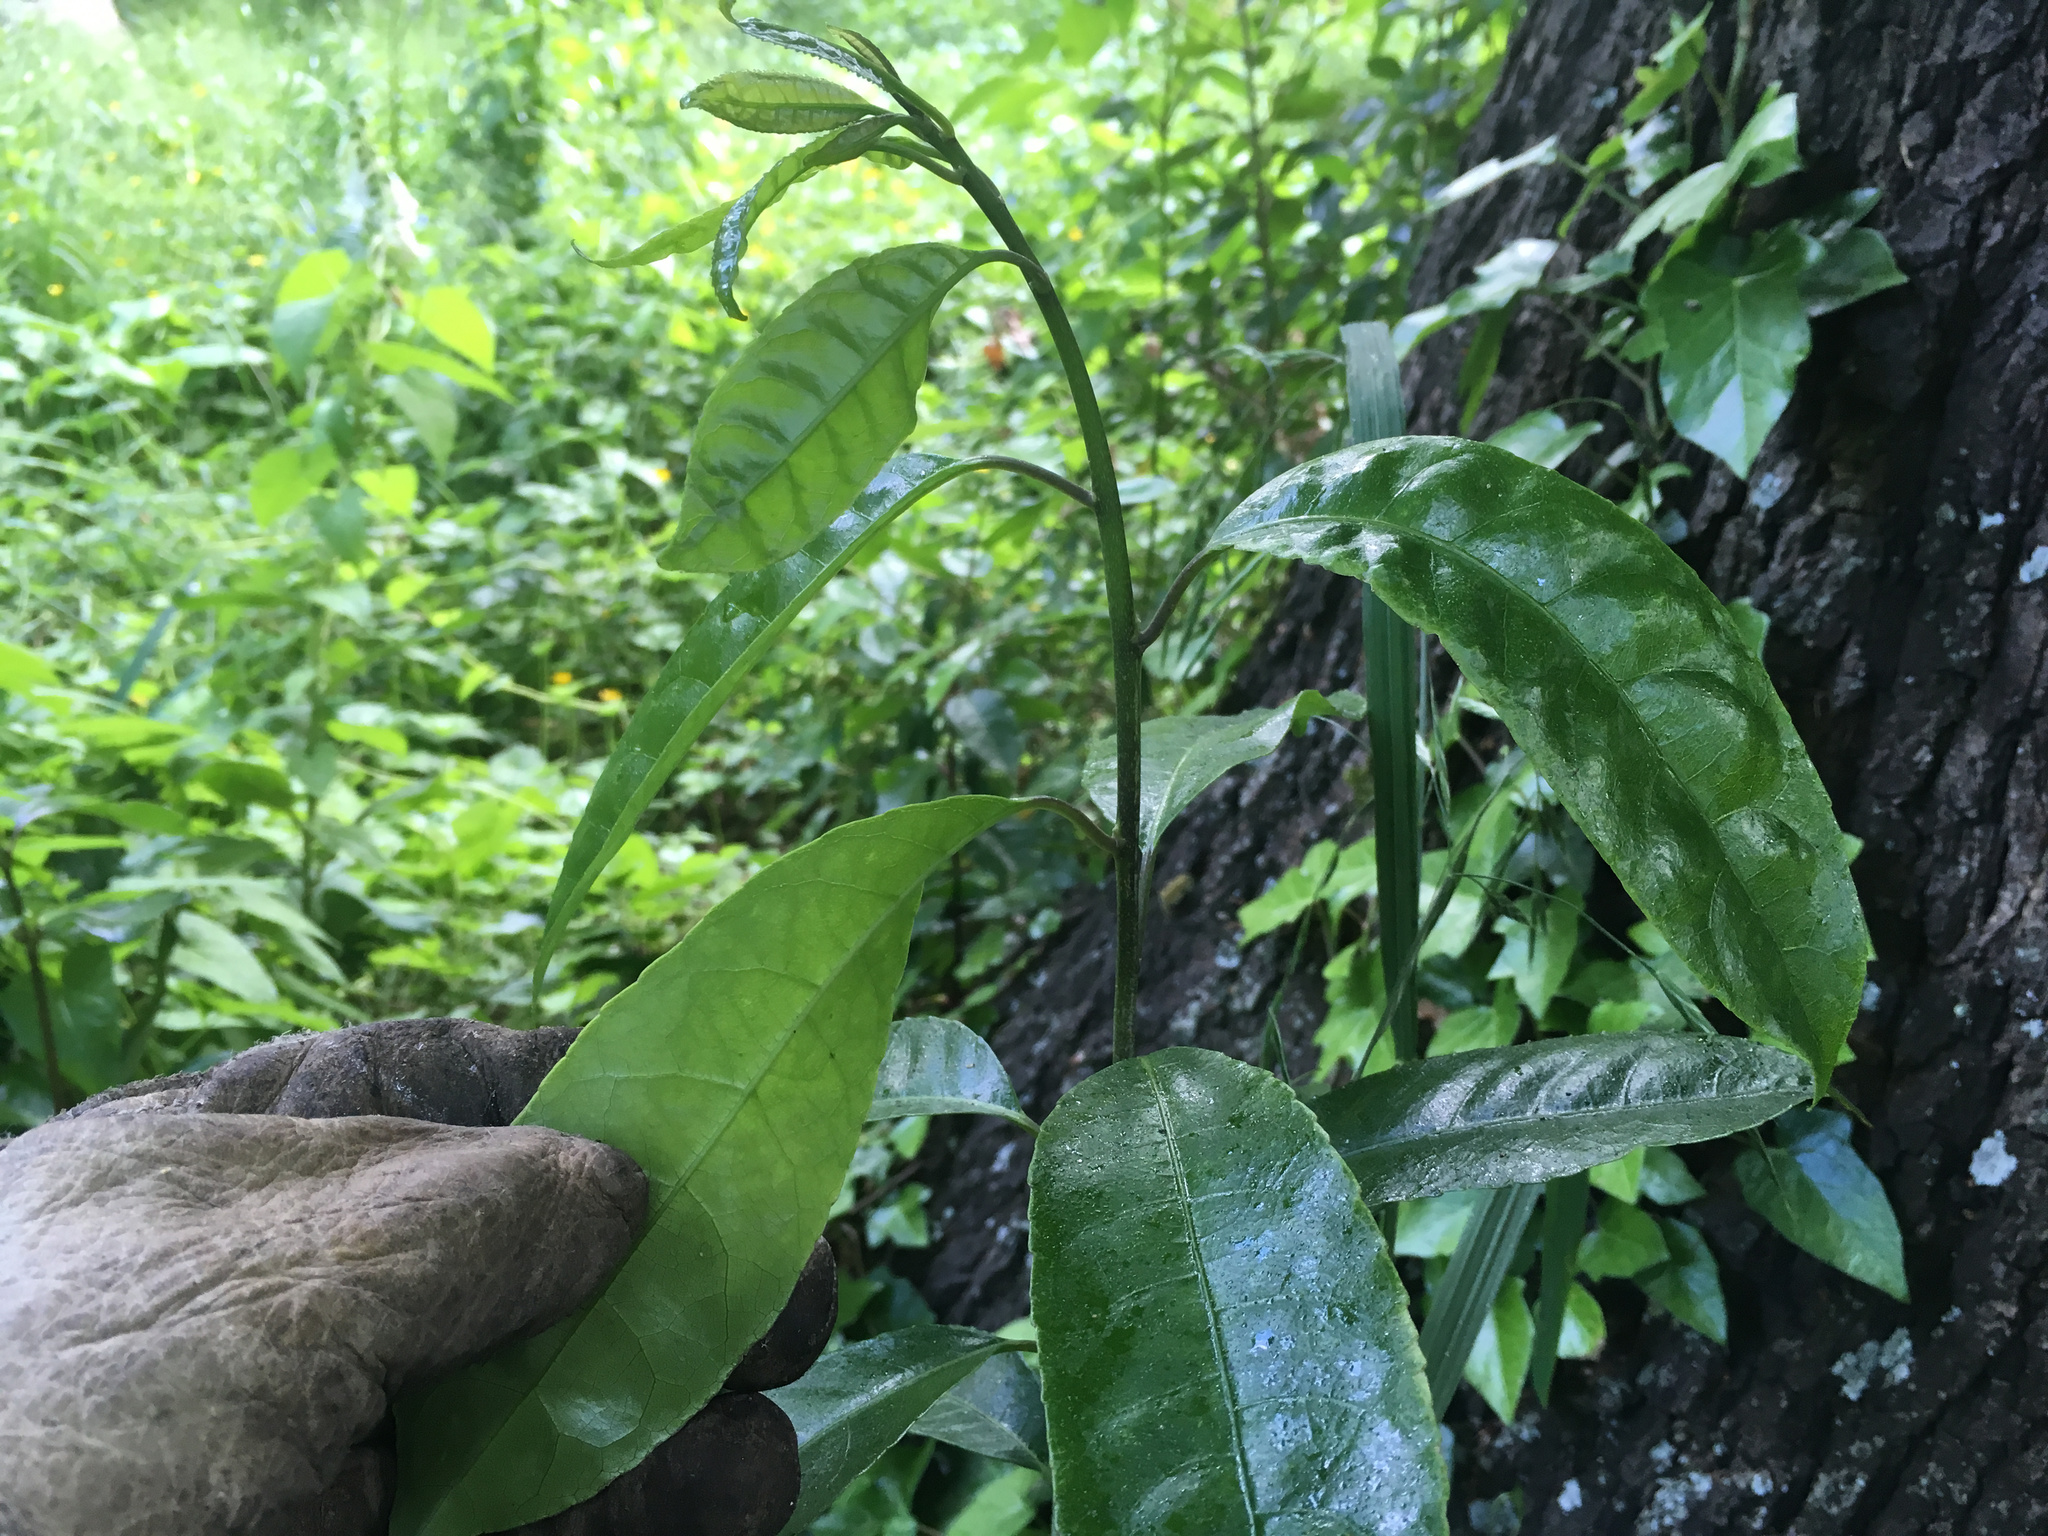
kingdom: Plantae
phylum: Tracheophyta
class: Magnoliopsida
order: Malpighiales
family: Violaceae
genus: Melicytus
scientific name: Melicytus ramiflorus
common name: Mahoe
